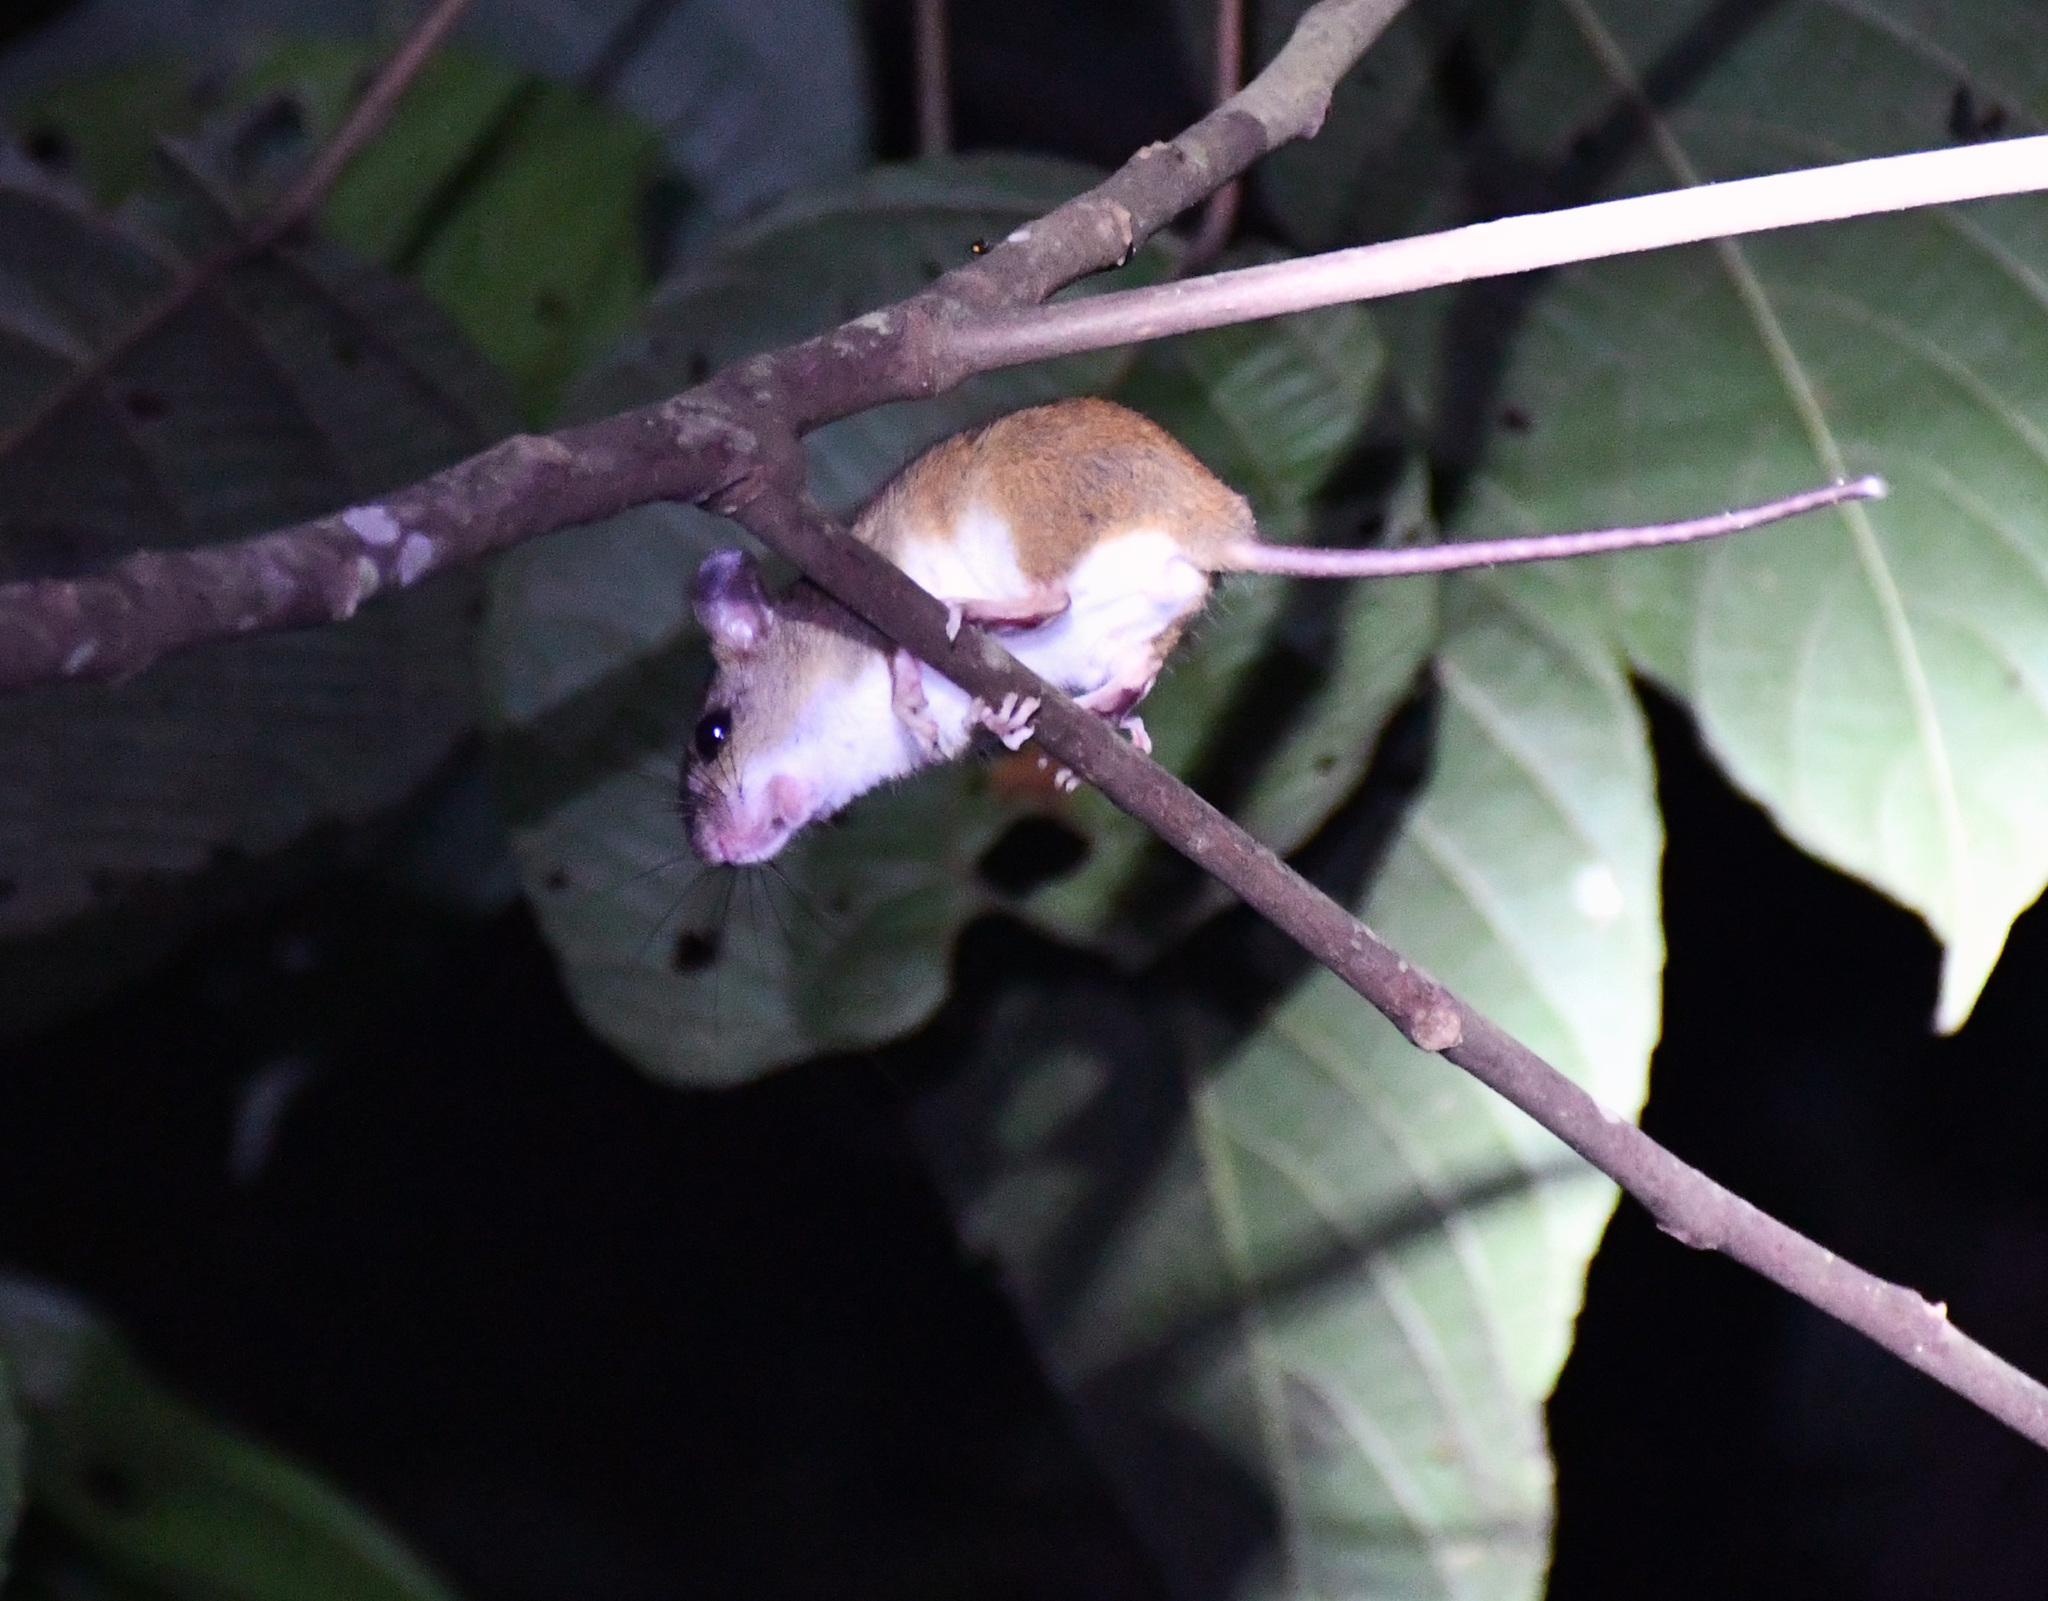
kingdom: Animalia
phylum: Chordata
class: Mammalia
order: Rodentia
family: Cricetidae
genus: Oecomys
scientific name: Oecomys bicolor
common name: White-bellied oecomys
